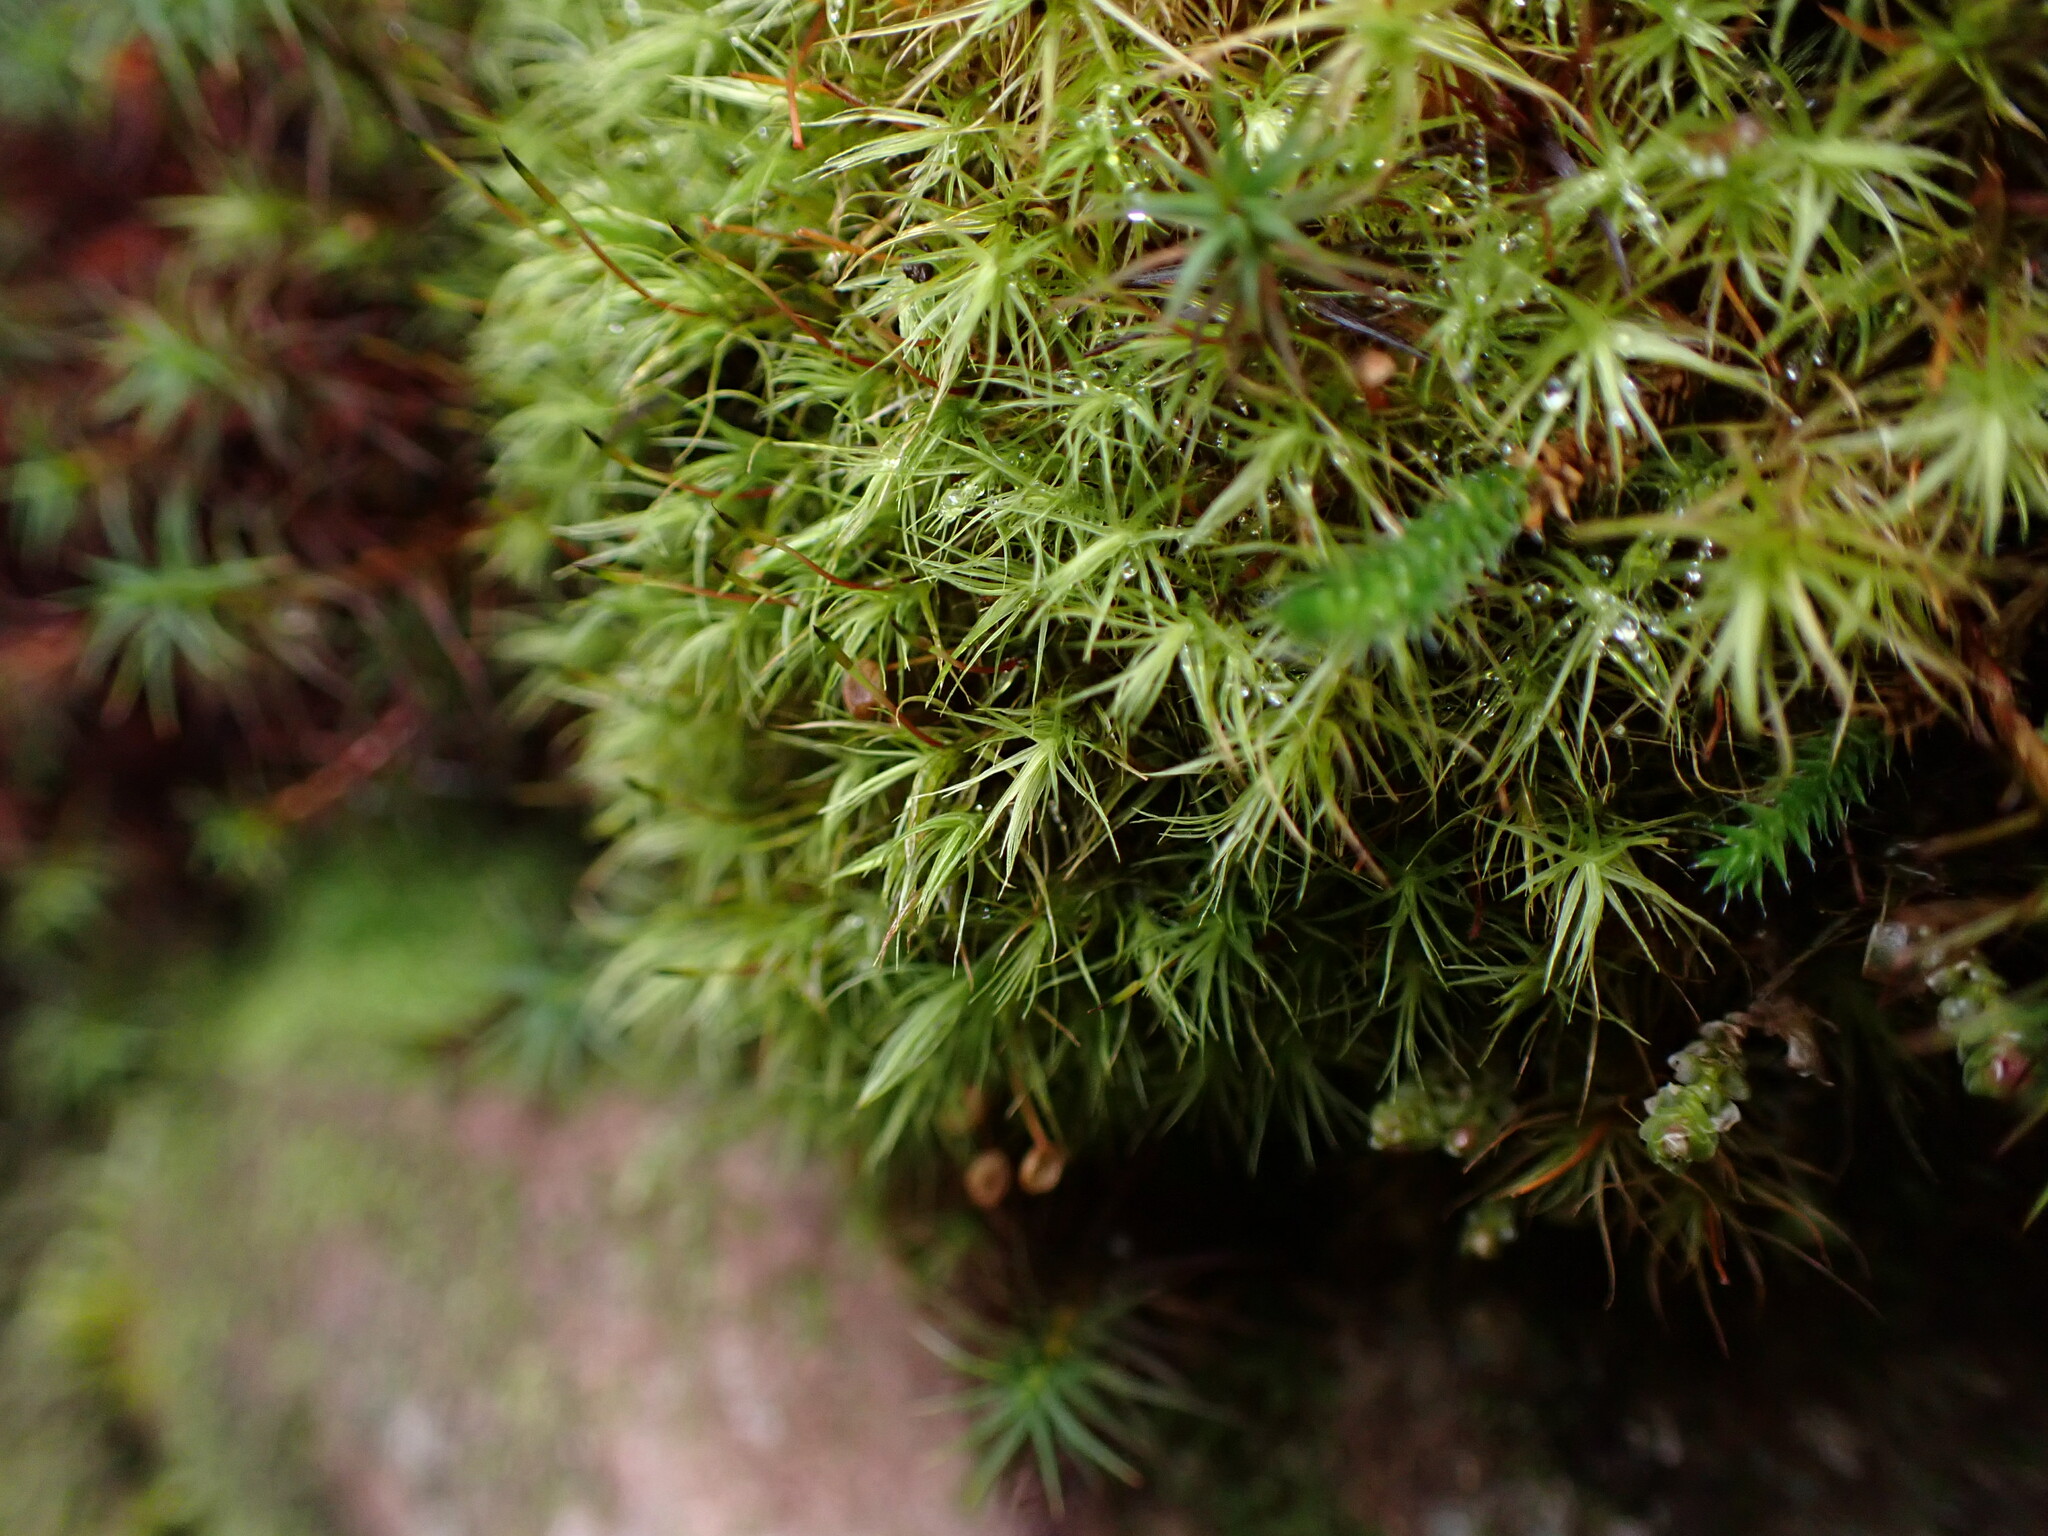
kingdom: Plantae
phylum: Bryophyta
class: Bryopsida
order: Bartramiales
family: Bartramiaceae
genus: Bartramia
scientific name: Bartramia ithyphylla
